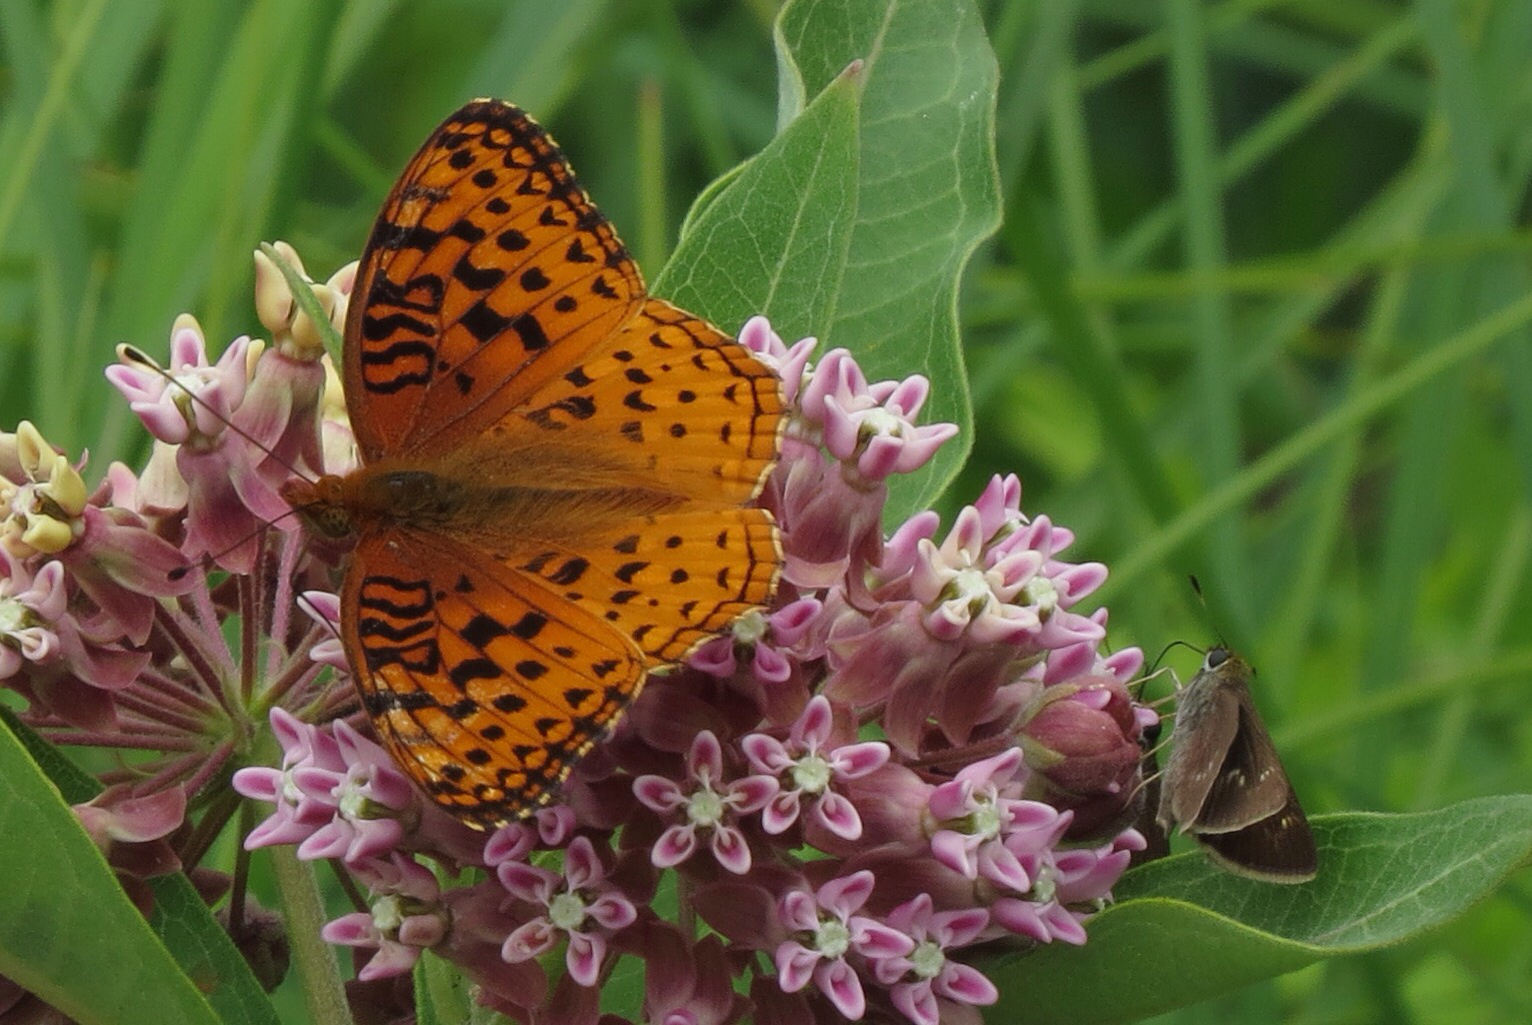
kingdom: Animalia
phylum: Arthropoda
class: Insecta
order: Lepidoptera
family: Nymphalidae
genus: Speyeria
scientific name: Speyeria aphrodite
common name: Aphrodite friitllary
